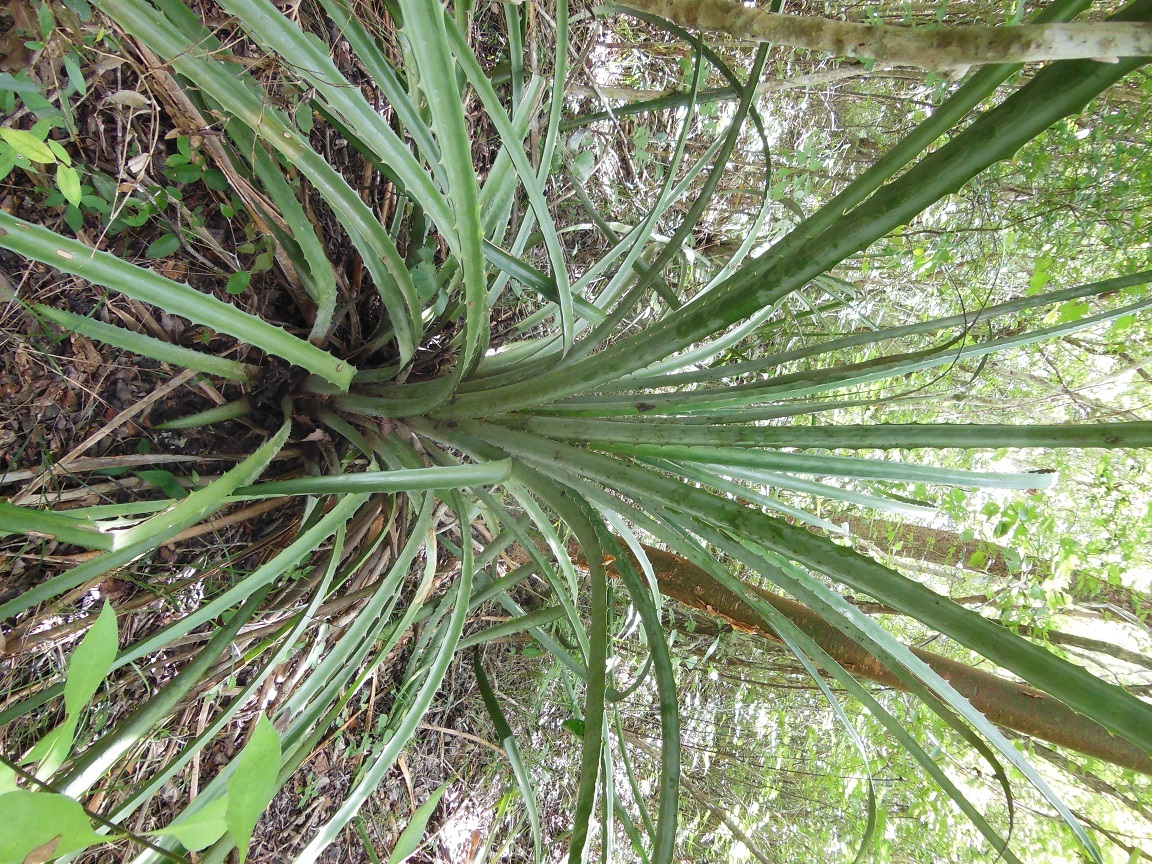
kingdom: Plantae
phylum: Tracheophyta
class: Liliopsida
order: Poales
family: Bromeliaceae
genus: Bromelia
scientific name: Bromelia karatas
